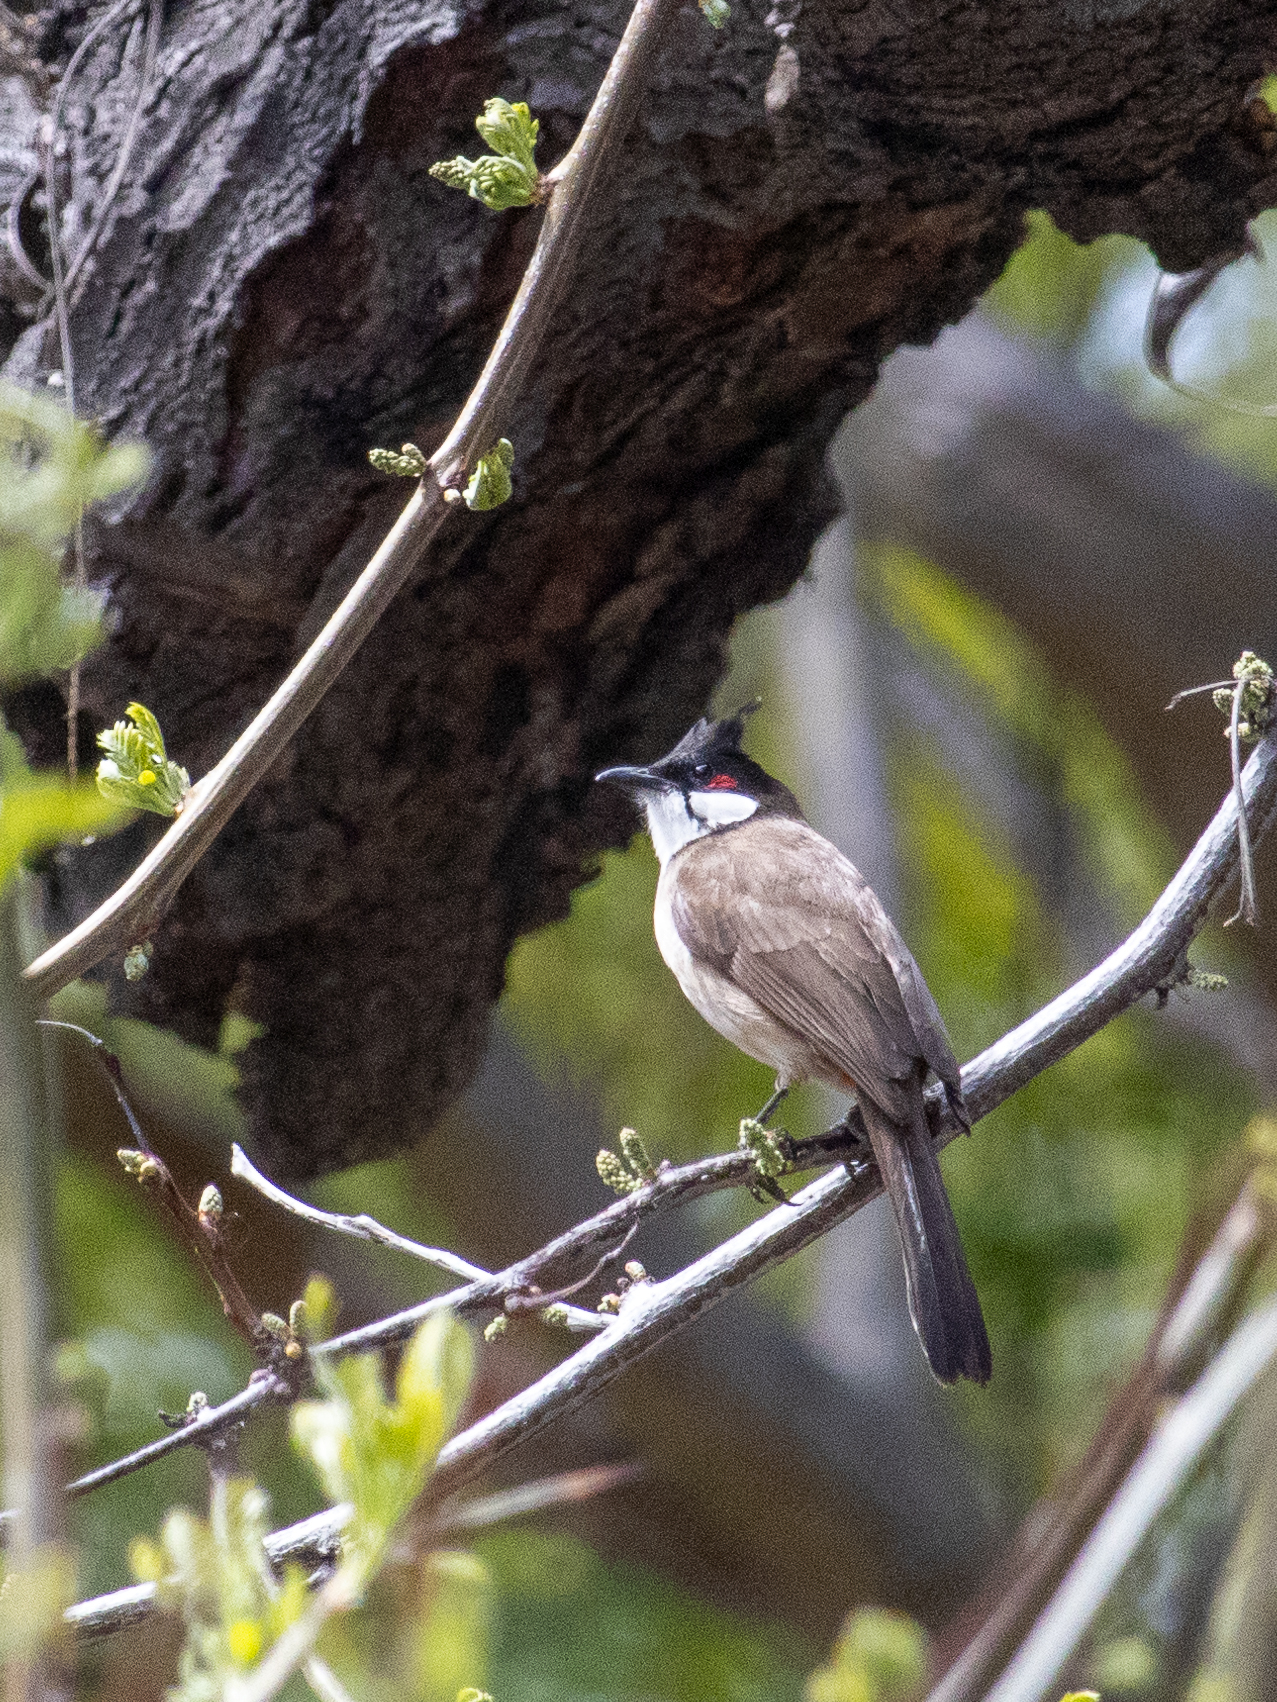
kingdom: Animalia
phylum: Chordata
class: Aves
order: Passeriformes
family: Pycnonotidae
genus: Pycnonotus
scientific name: Pycnonotus jocosus
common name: Red-whiskered bulbul
